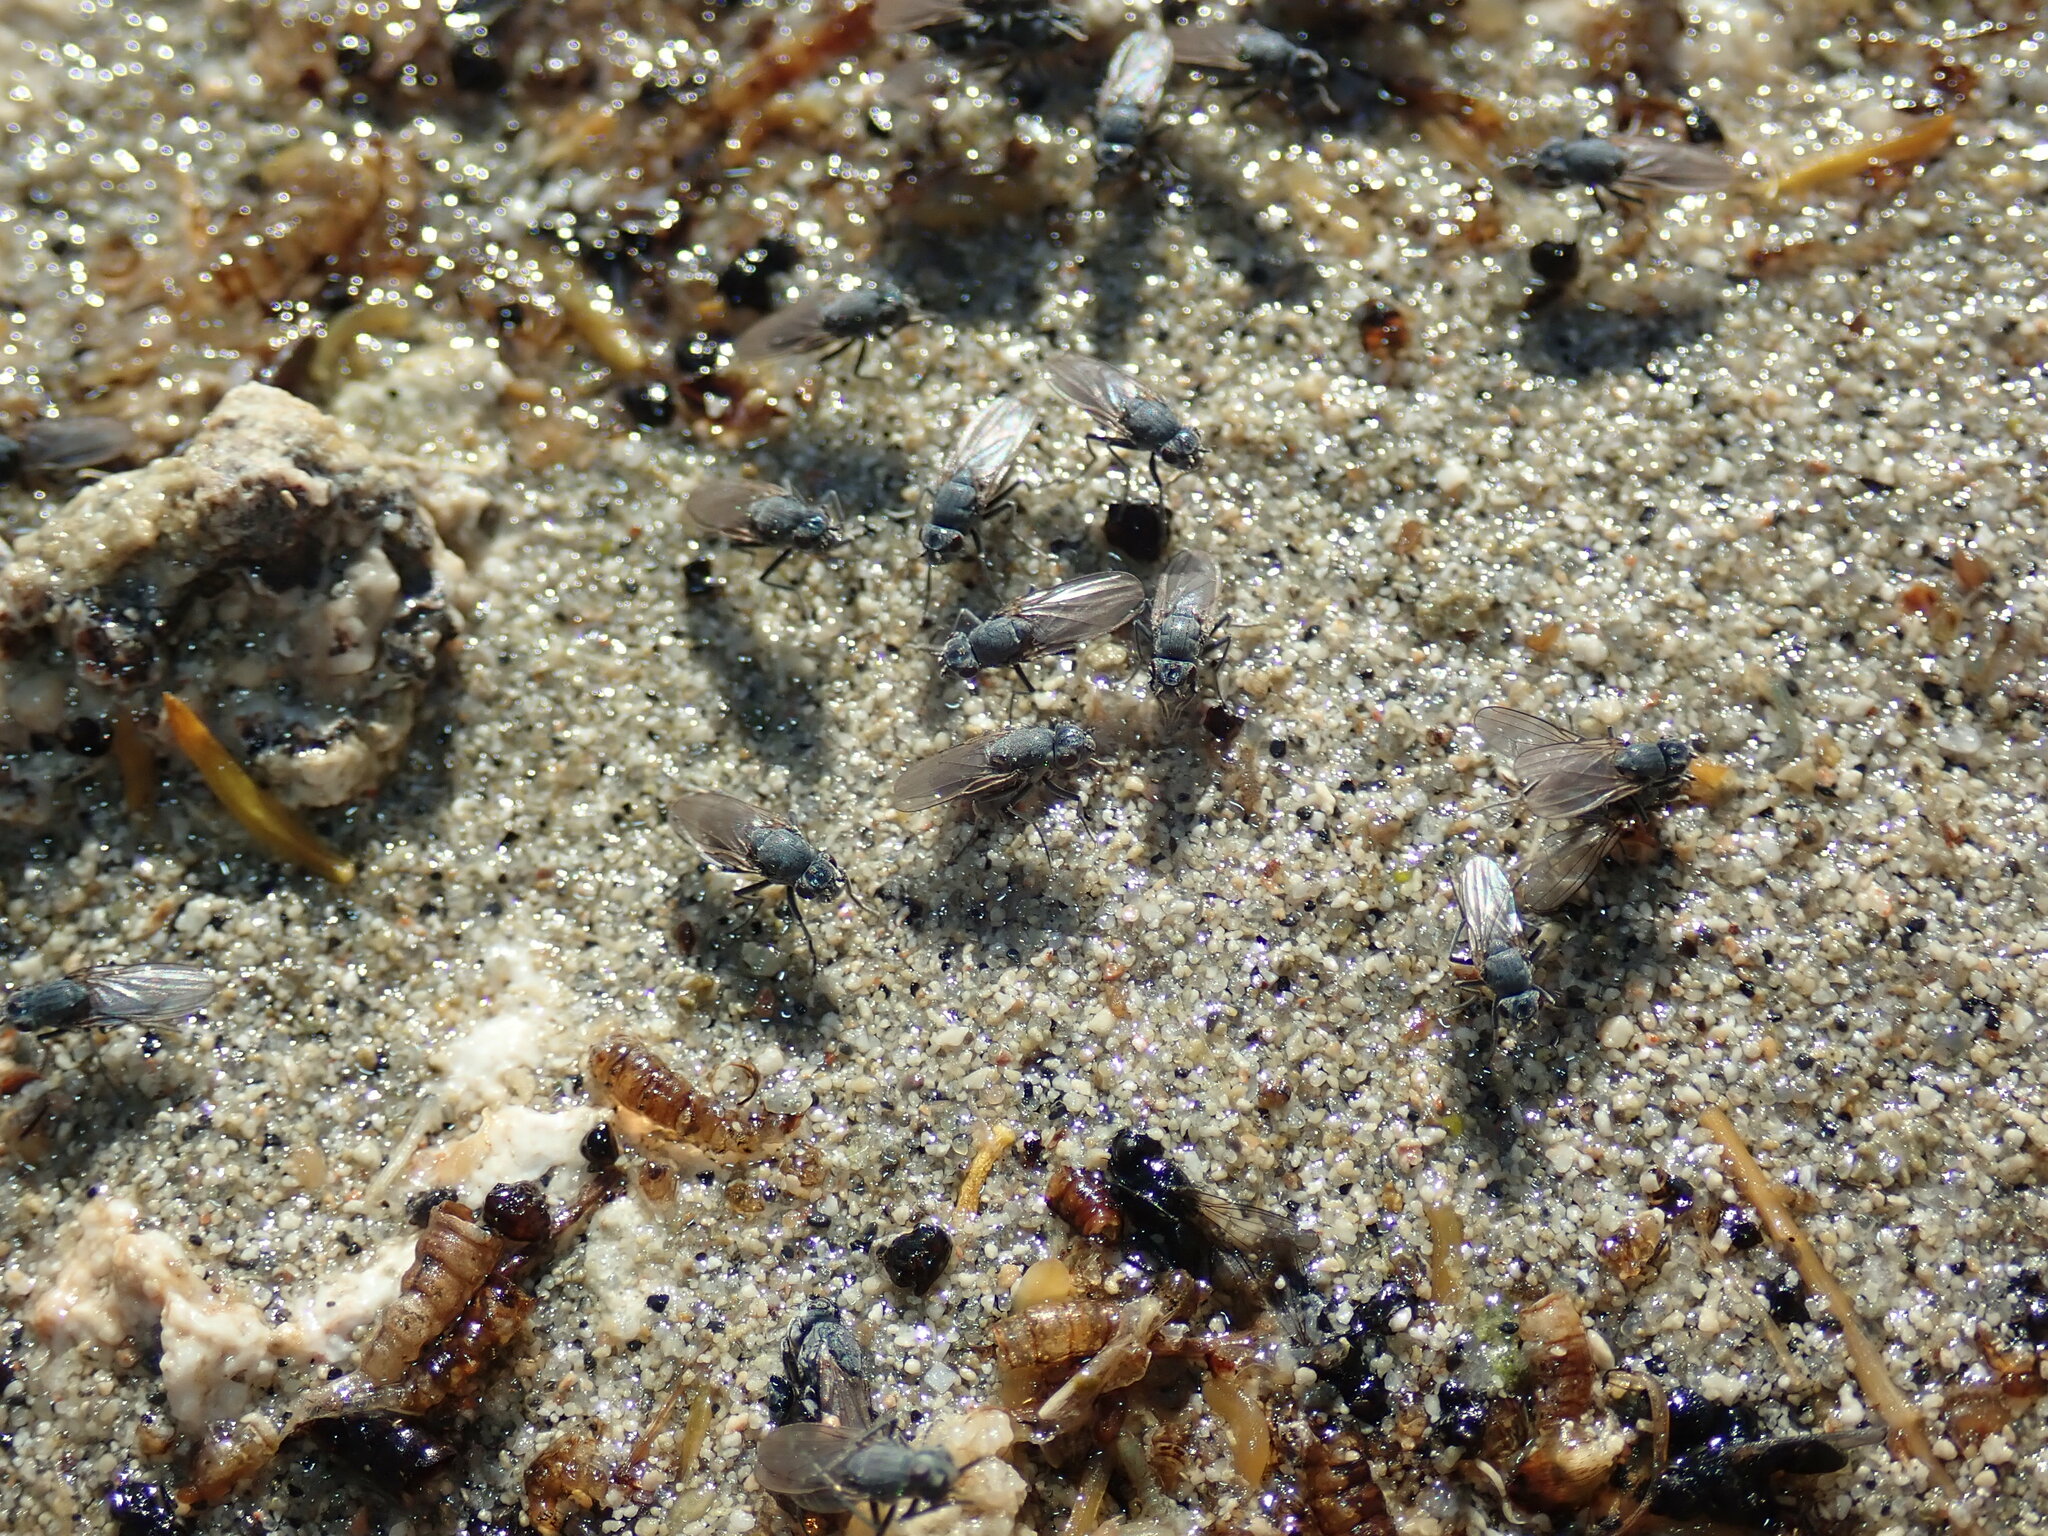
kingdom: Animalia
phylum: Arthropoda
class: Insecta
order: Diptera
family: Ephydridae
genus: Cirrula
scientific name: Cirrula hians
